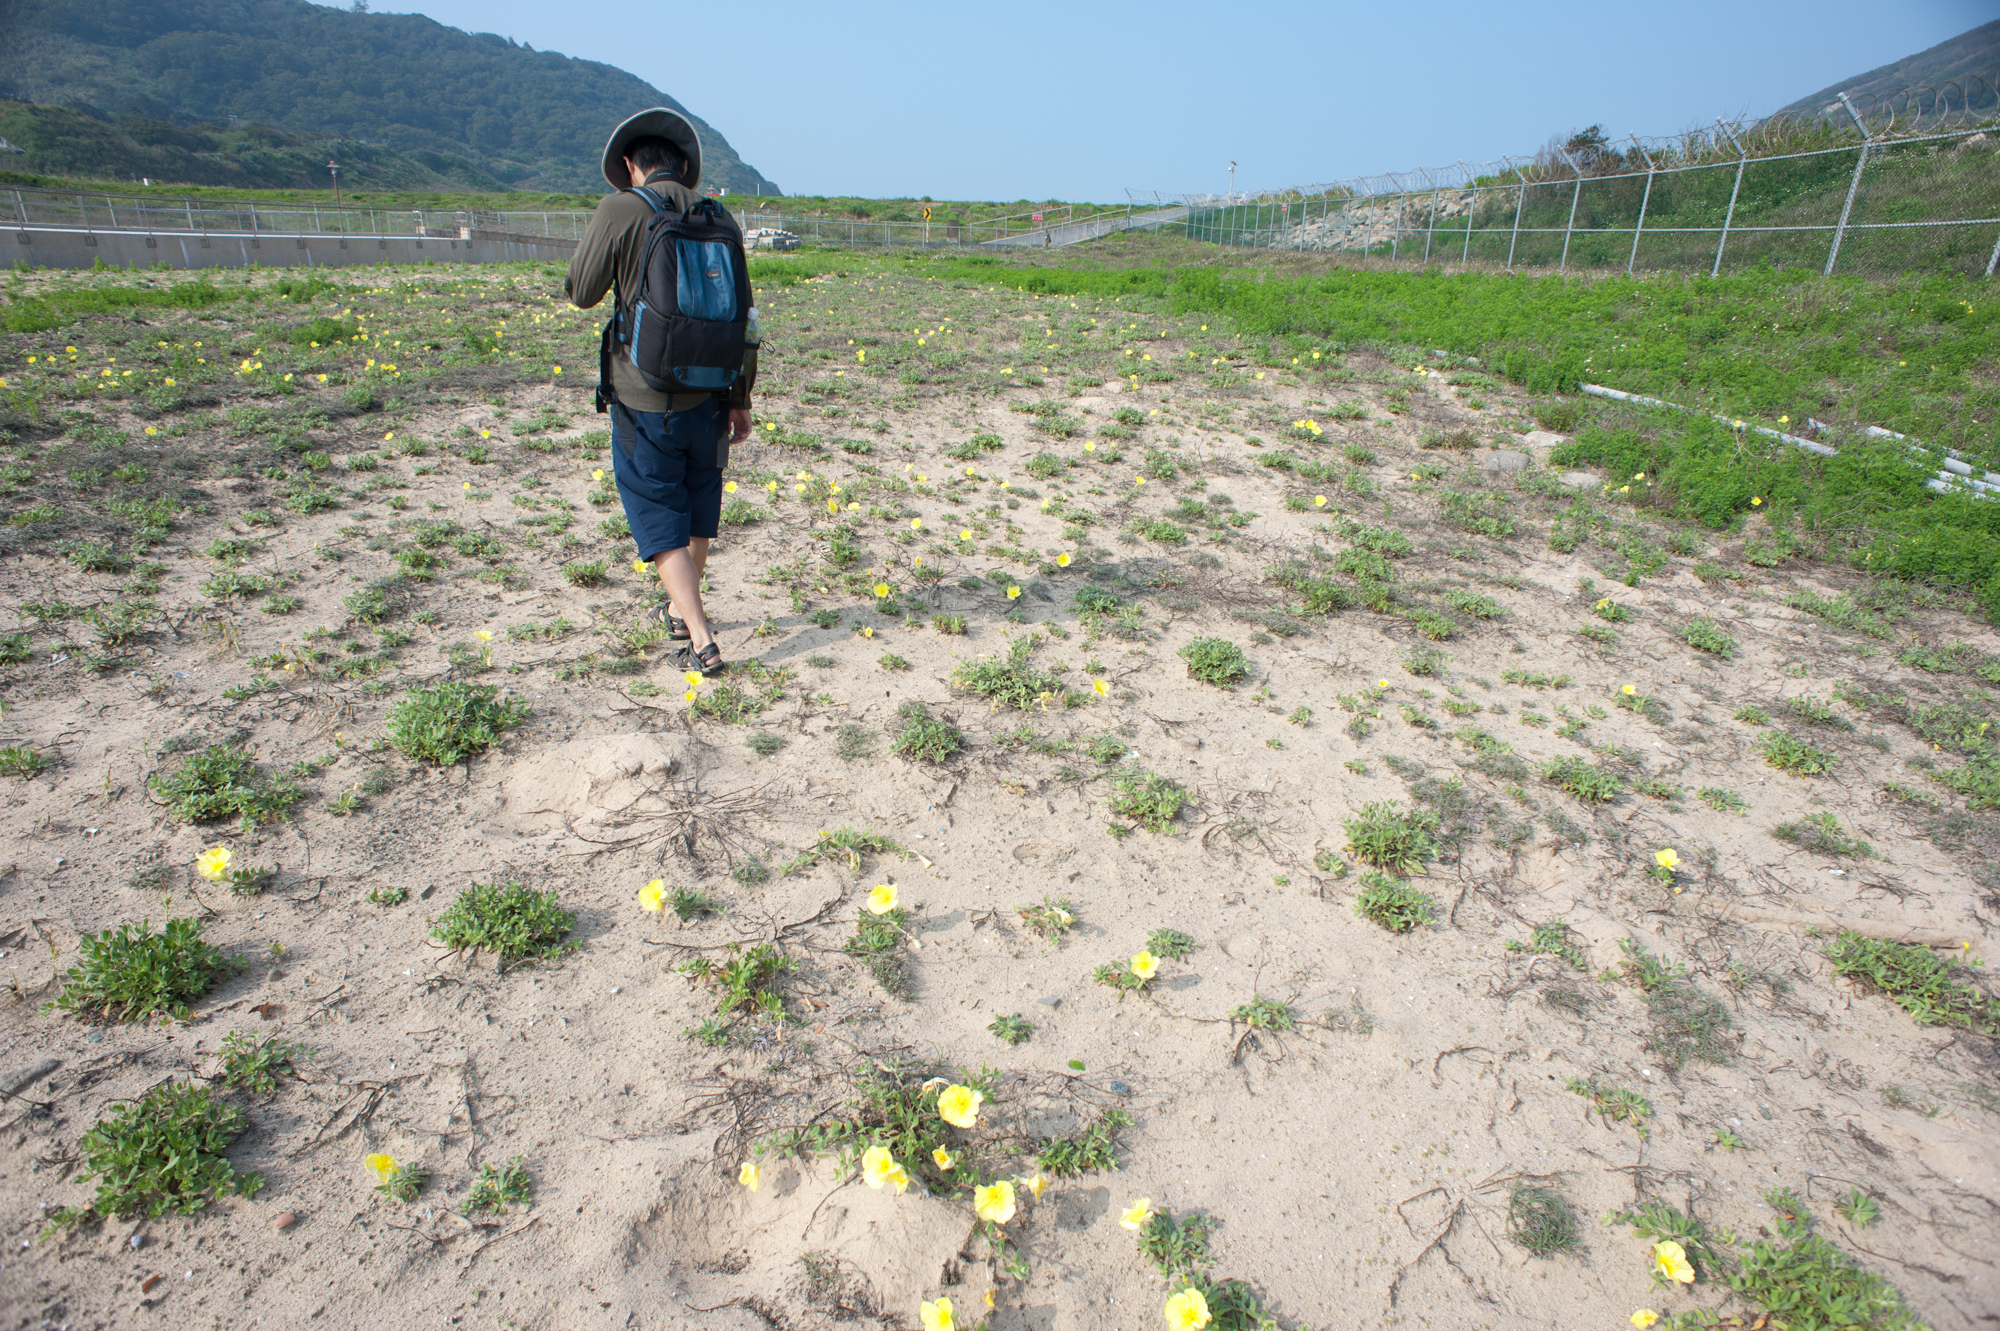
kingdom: Plantae
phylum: Tracheophyta
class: Magnoliopsida
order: Myrtales
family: Onagraceae
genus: Oenothera
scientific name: Oenothera drummondii
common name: Beach evening-primrose
